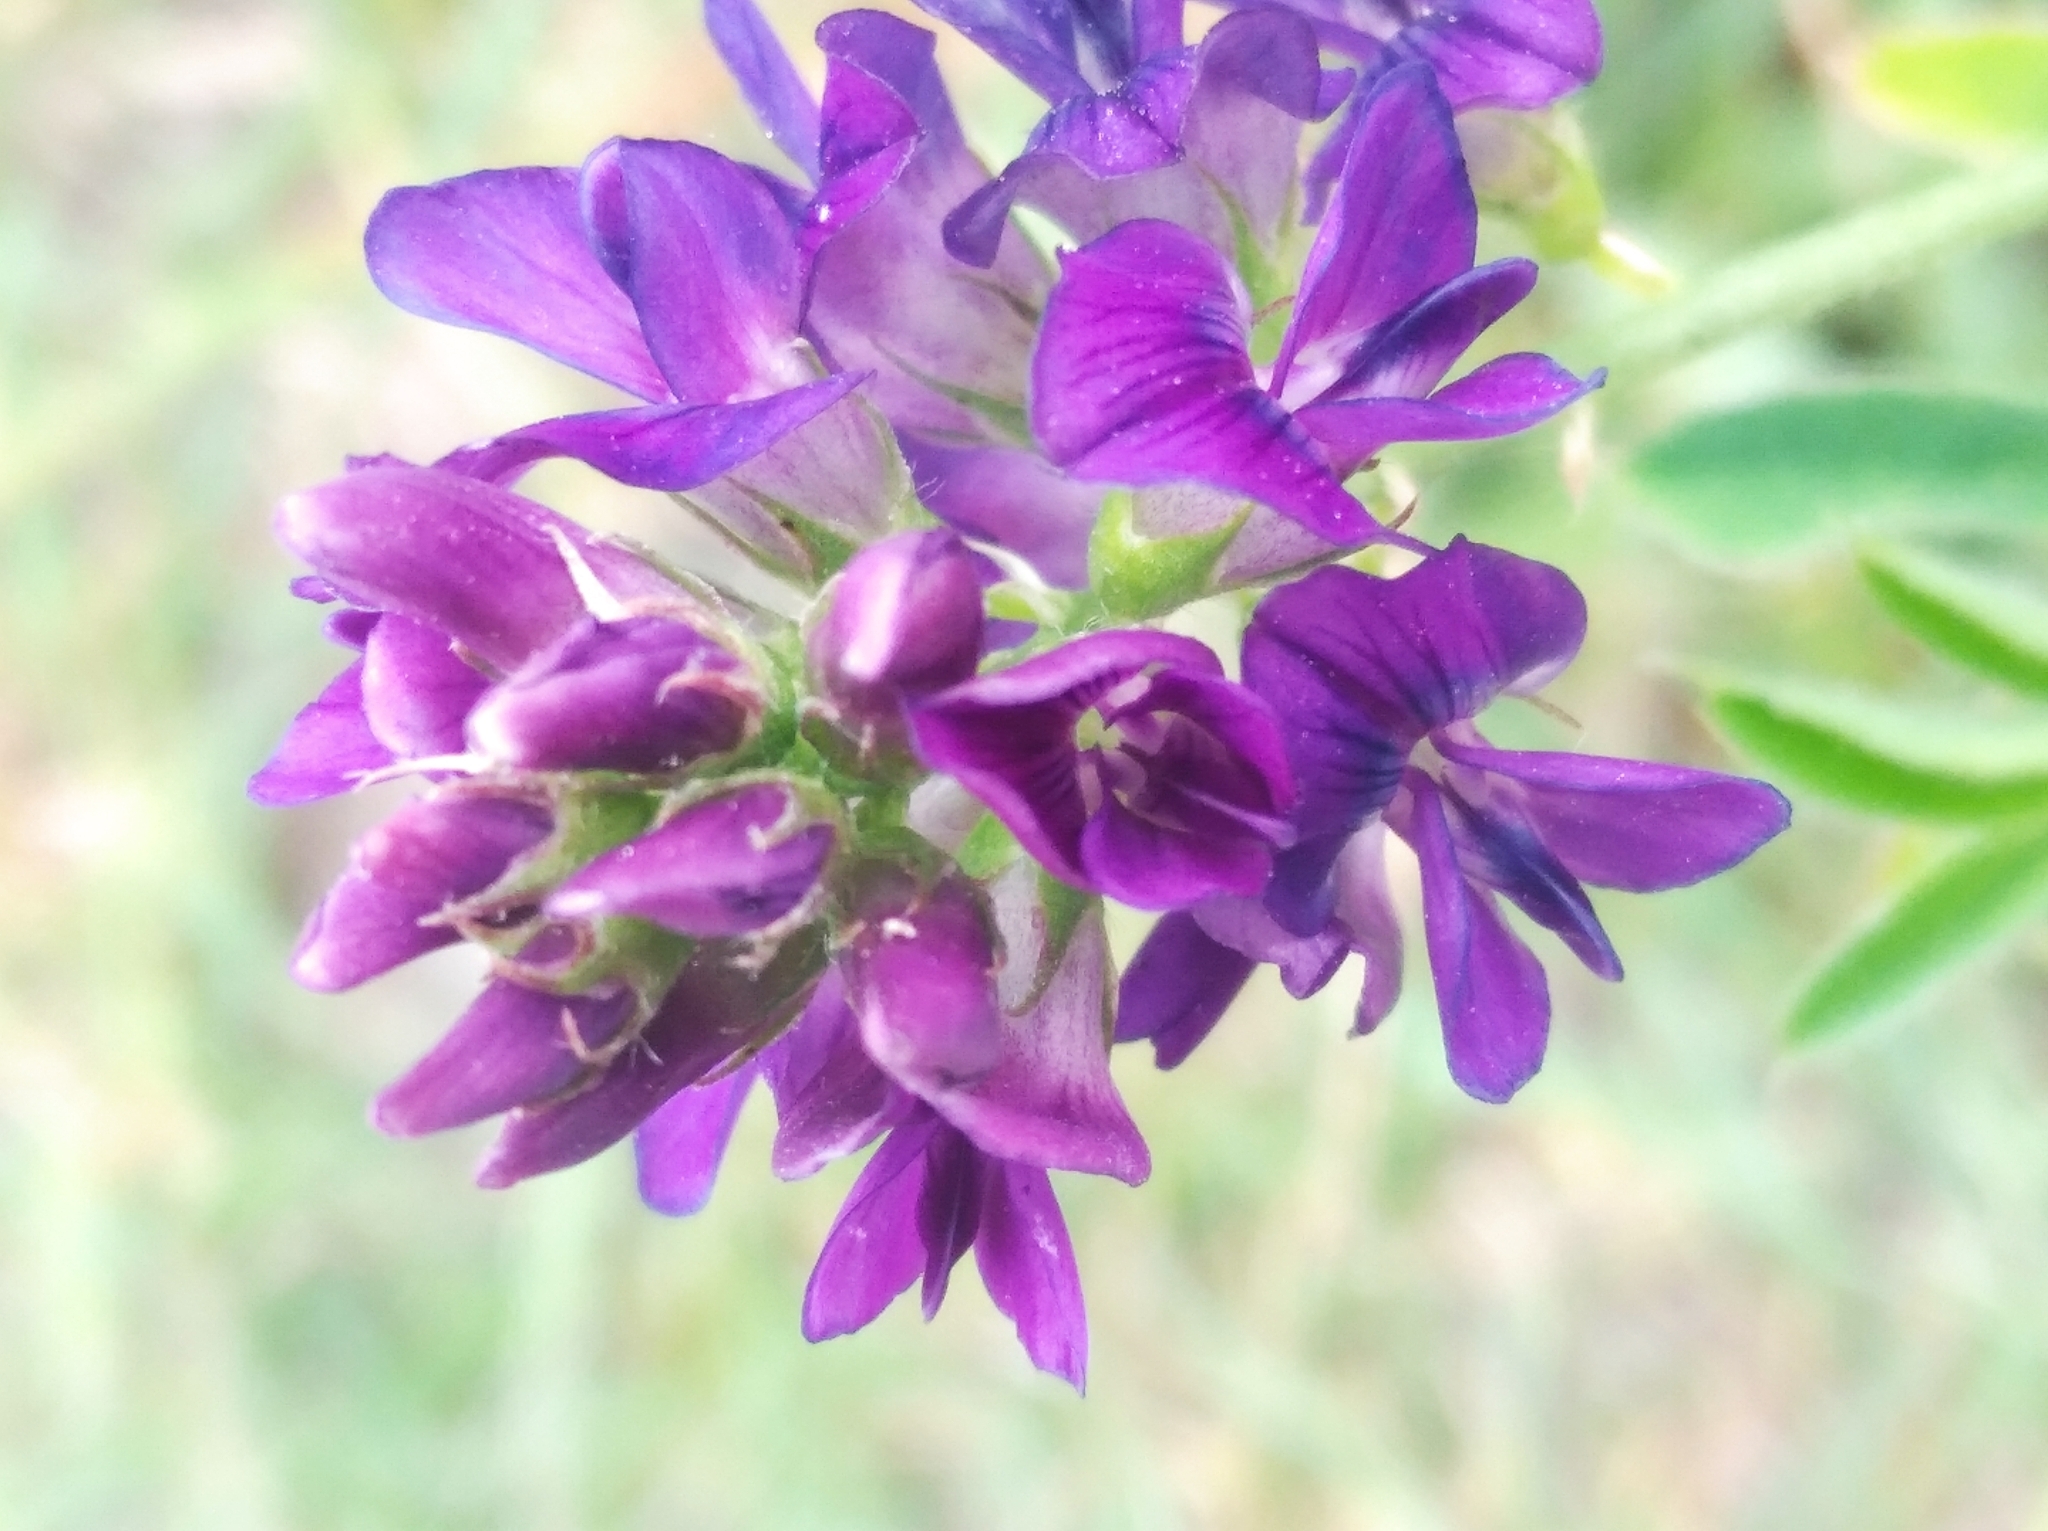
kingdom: Plantae
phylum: Tracheophyta
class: Magnoliopsida
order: Fabales
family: Fabaceae
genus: Medicago
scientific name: Medicago sativa
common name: Alfalfa
